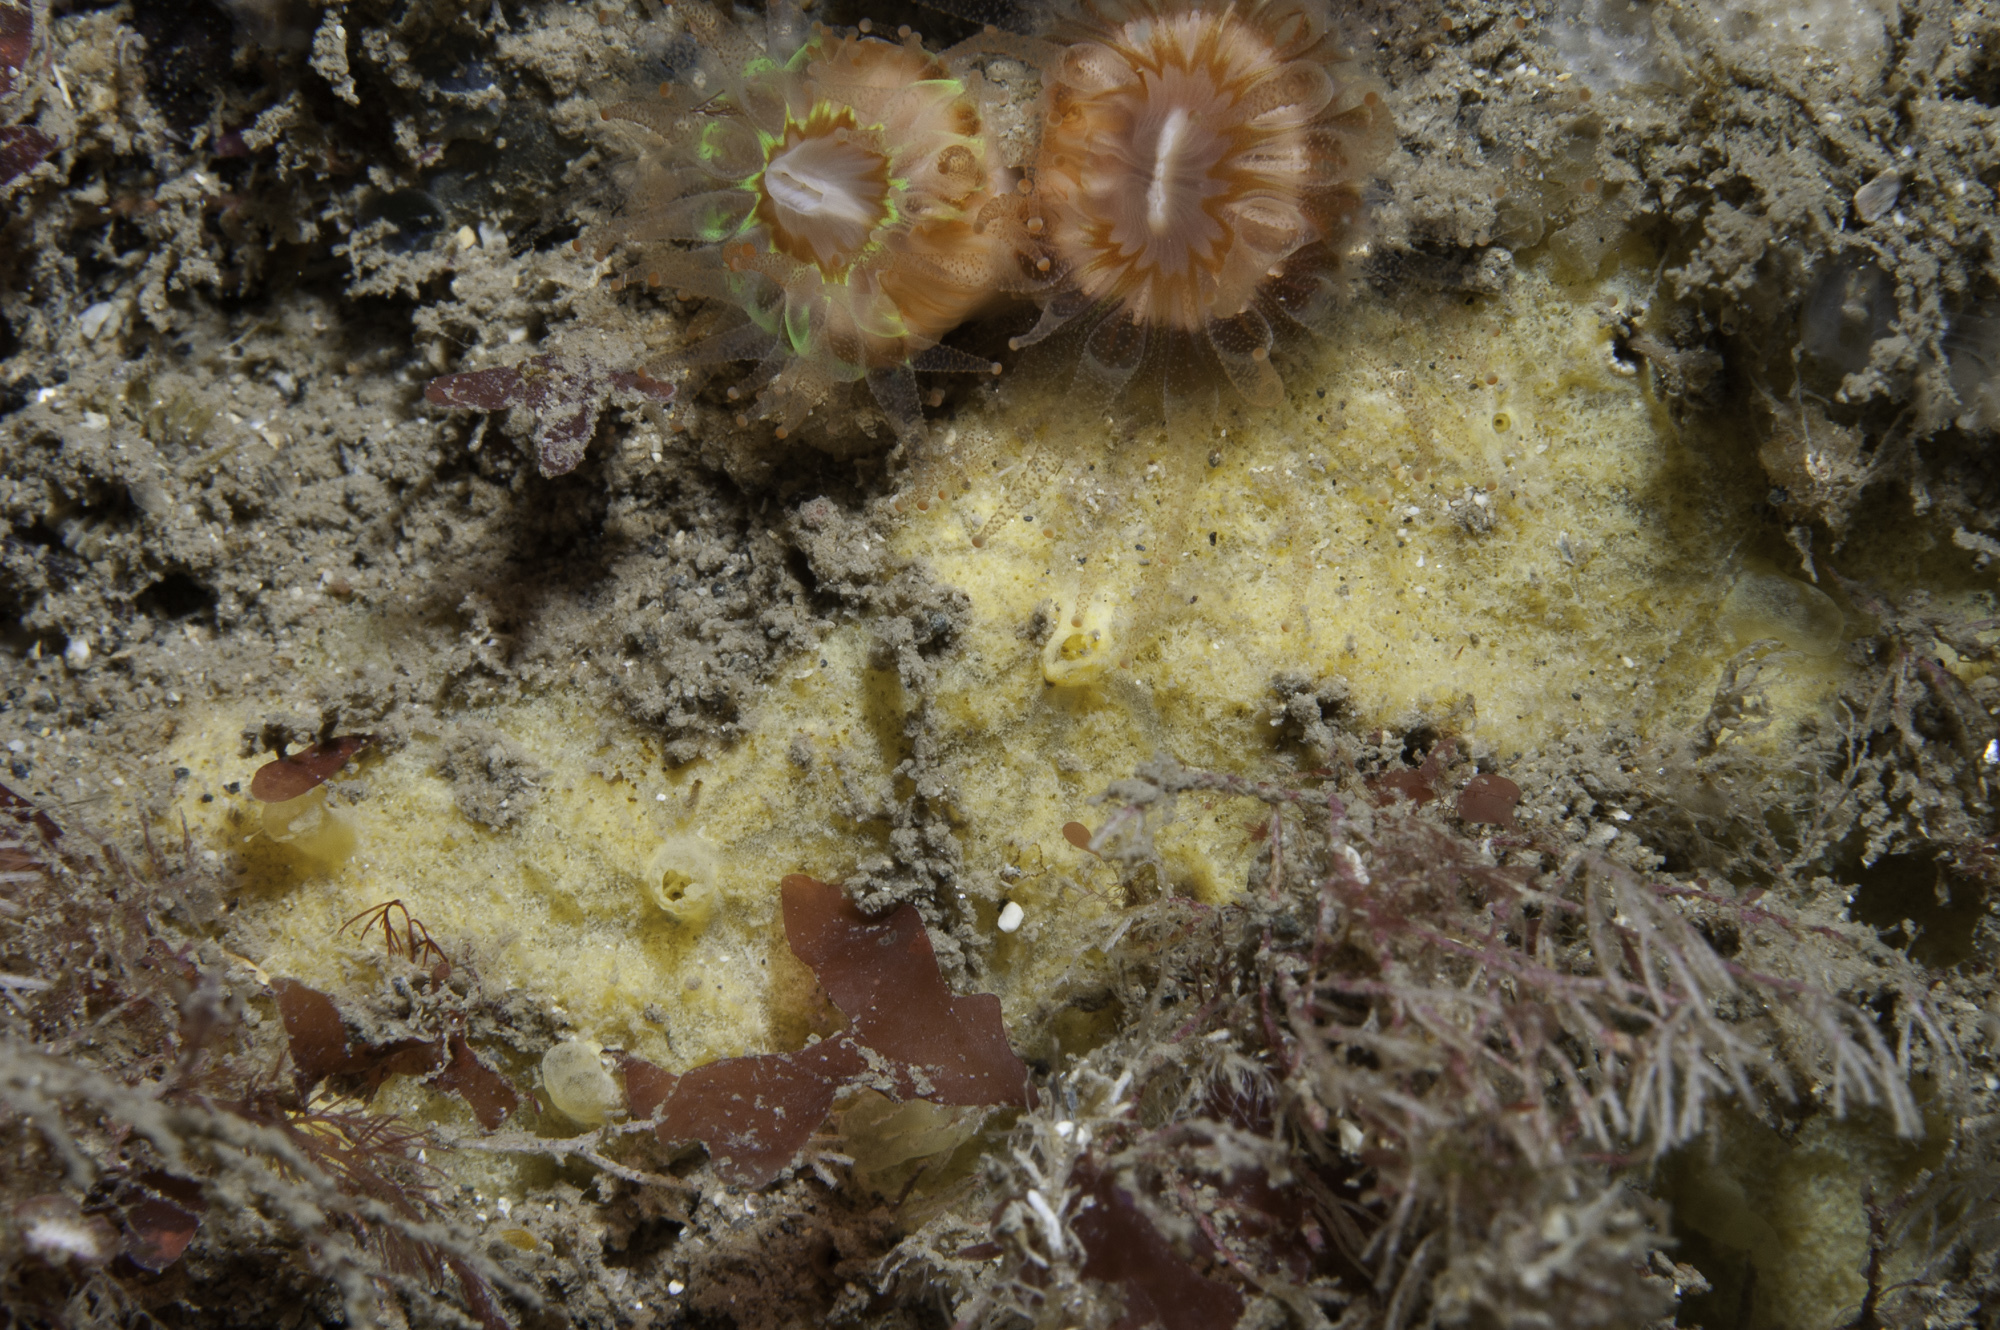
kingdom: Animalia
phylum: Porifera
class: Demospongiae
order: Agelasida
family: Hymerhabdiidae
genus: Hymerhabdia
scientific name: Hymerhabdia typica
